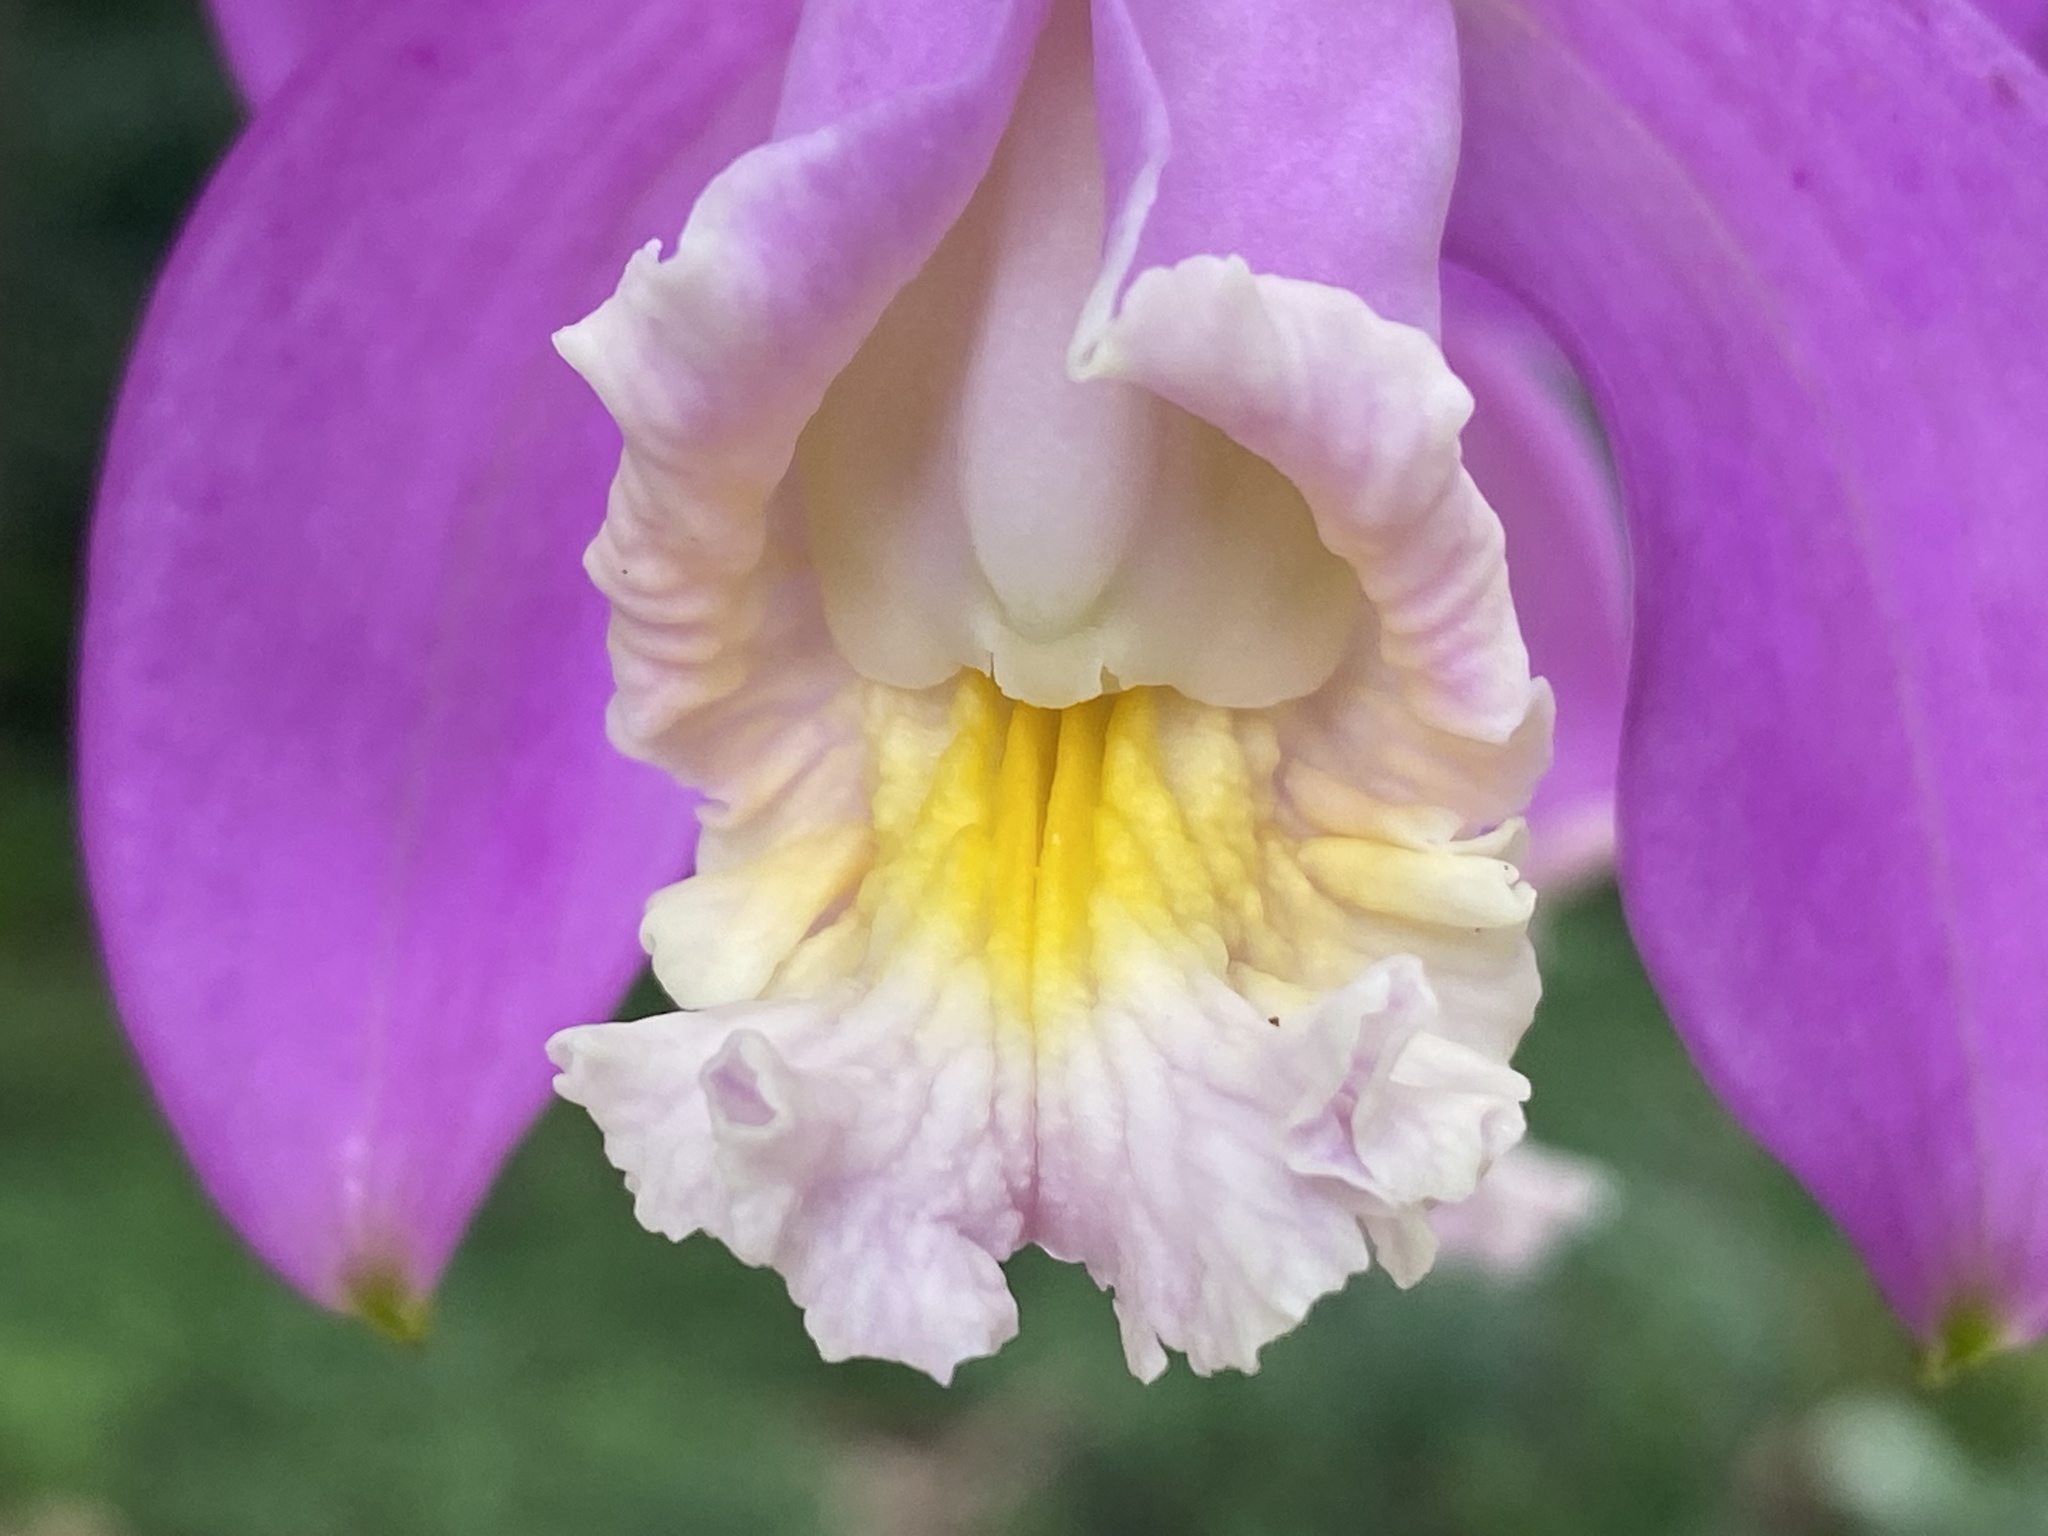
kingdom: Plantae
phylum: Tracheophyta
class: Liliopsida
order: Asparagales
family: Orchidaceae
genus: Cattleya
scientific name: Cattleya harrisoniana
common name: Harrison's cattleya
